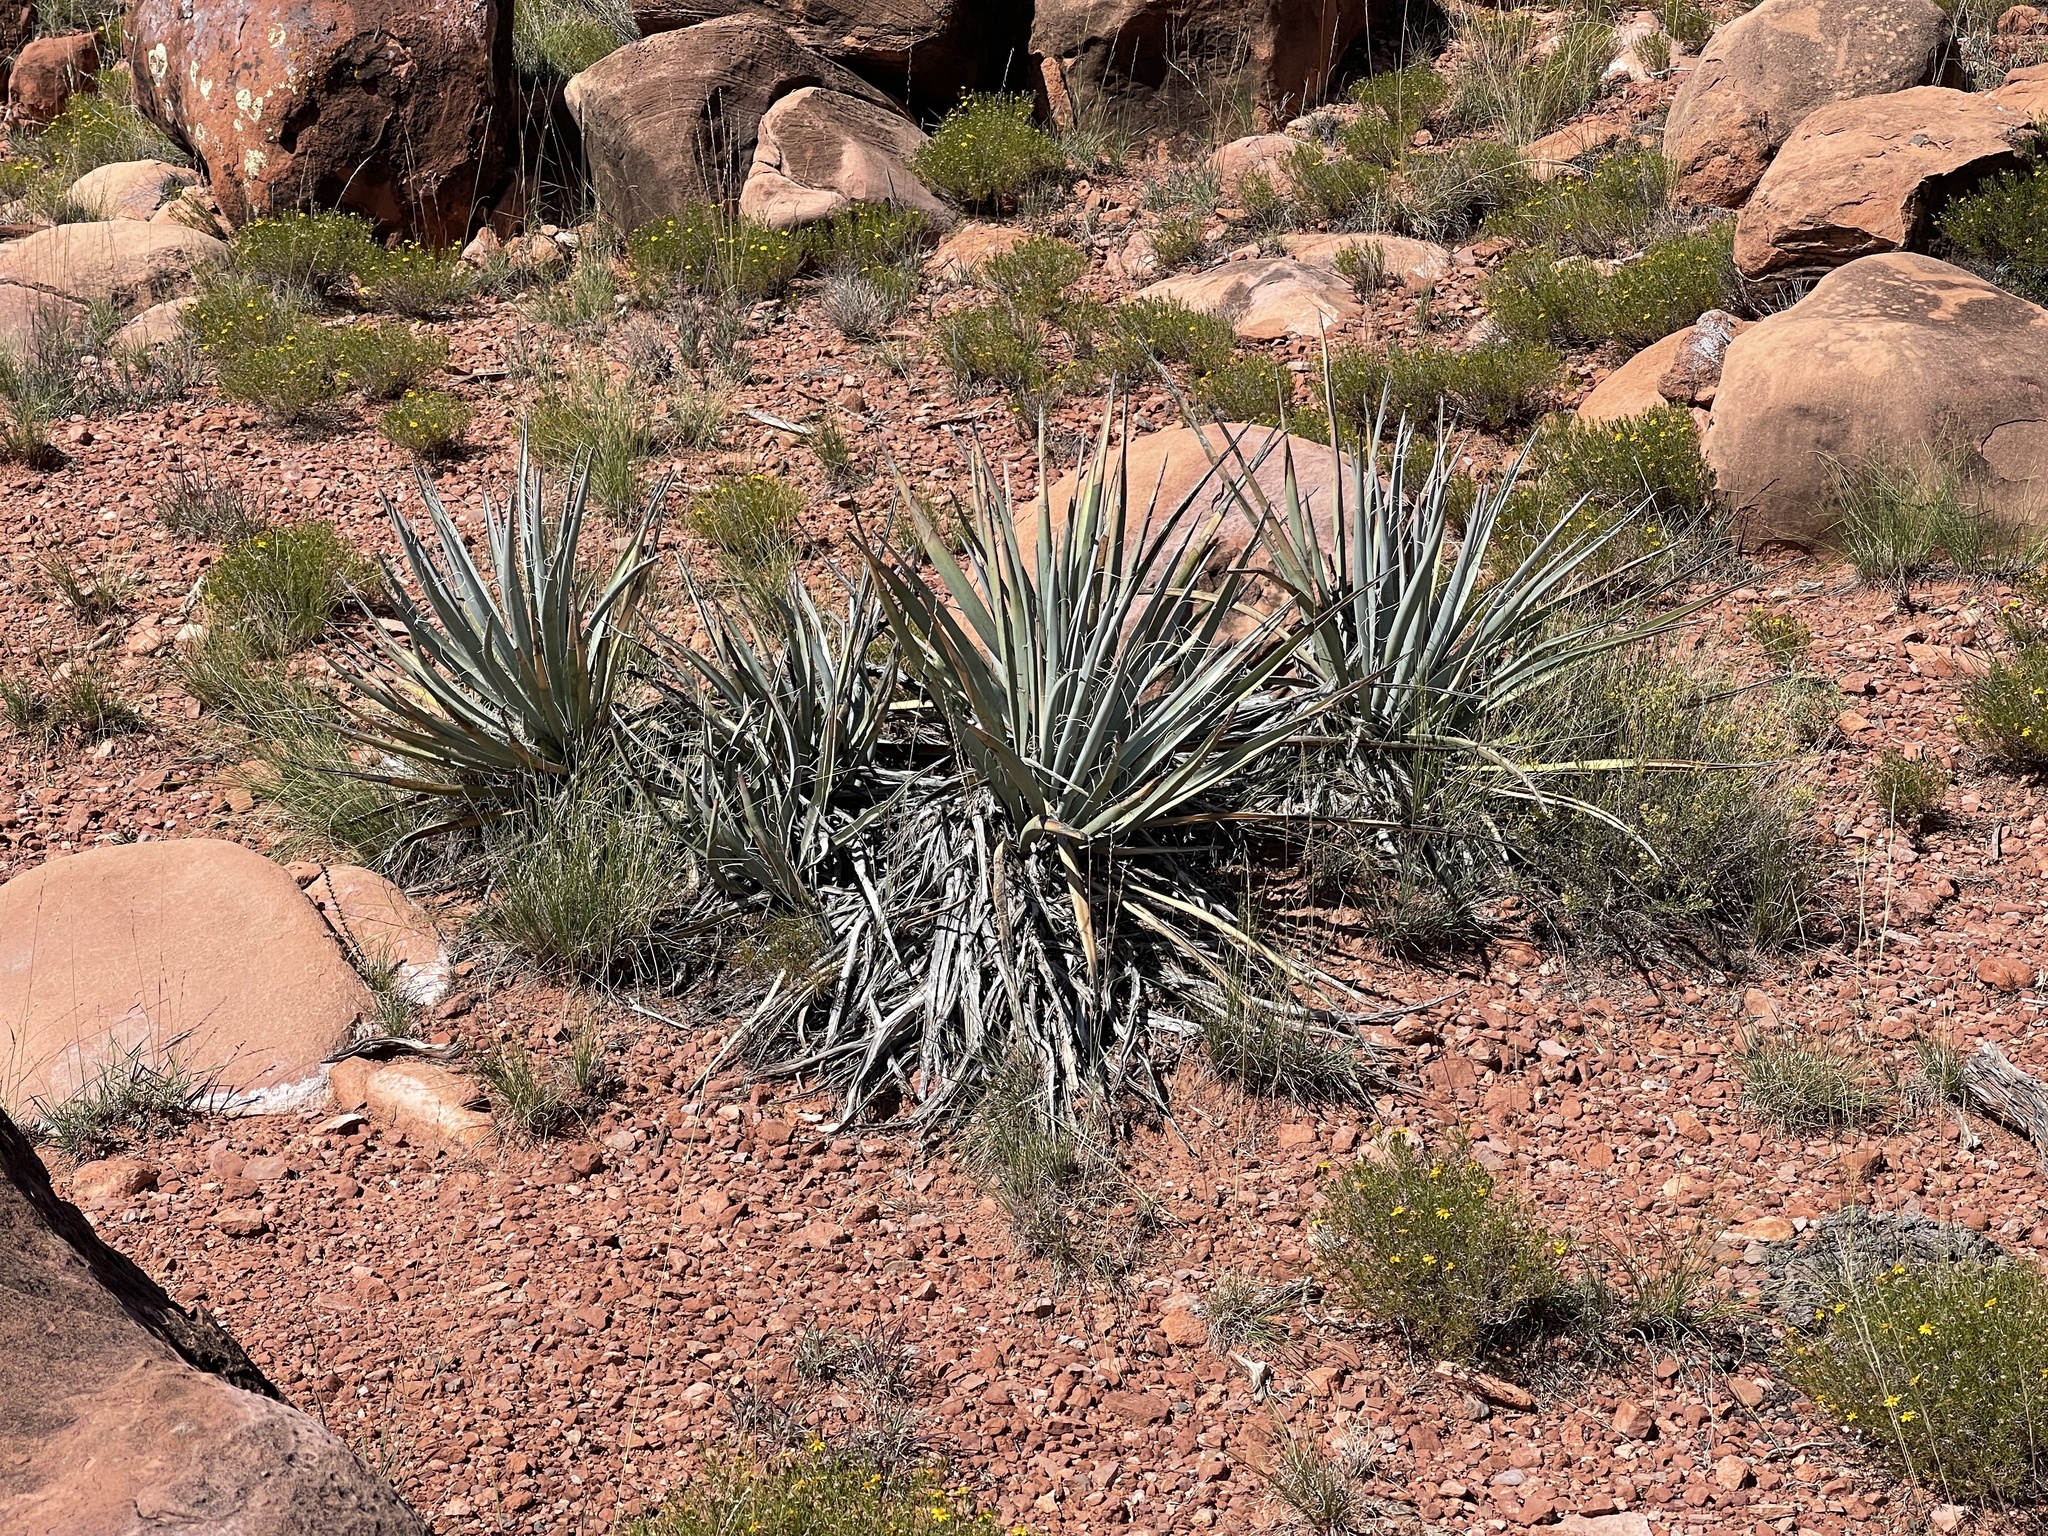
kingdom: Plantae
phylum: Tracheophyta
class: Liliopsida
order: Asparagales
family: Asparagaceae
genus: Yucca
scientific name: Yucca baccata
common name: Banana yucca
